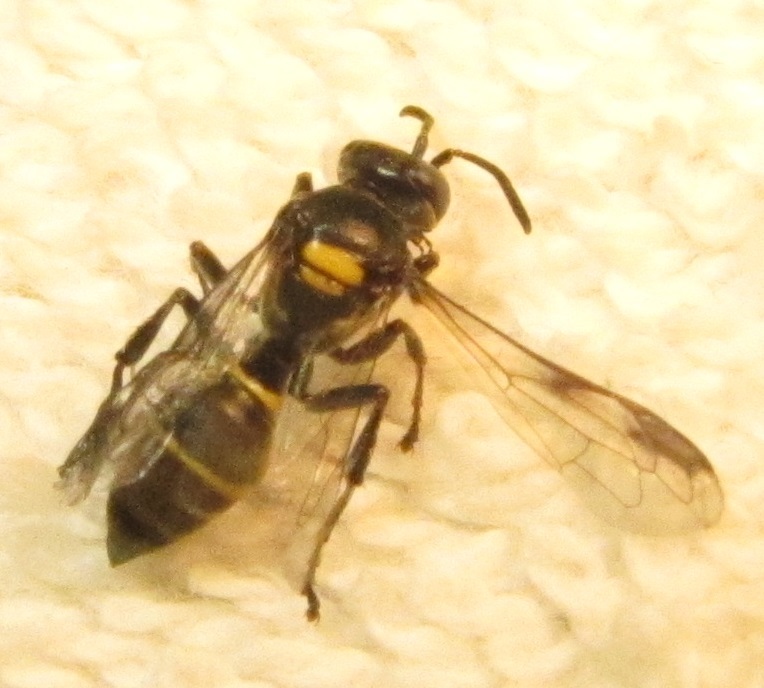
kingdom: Animalia
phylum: Arthropoda
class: Insecta
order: Hymenoptera
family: Crabronidae
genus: Hoplisoides
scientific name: Hoplisoides semipunctatus
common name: Sphecid wasp
